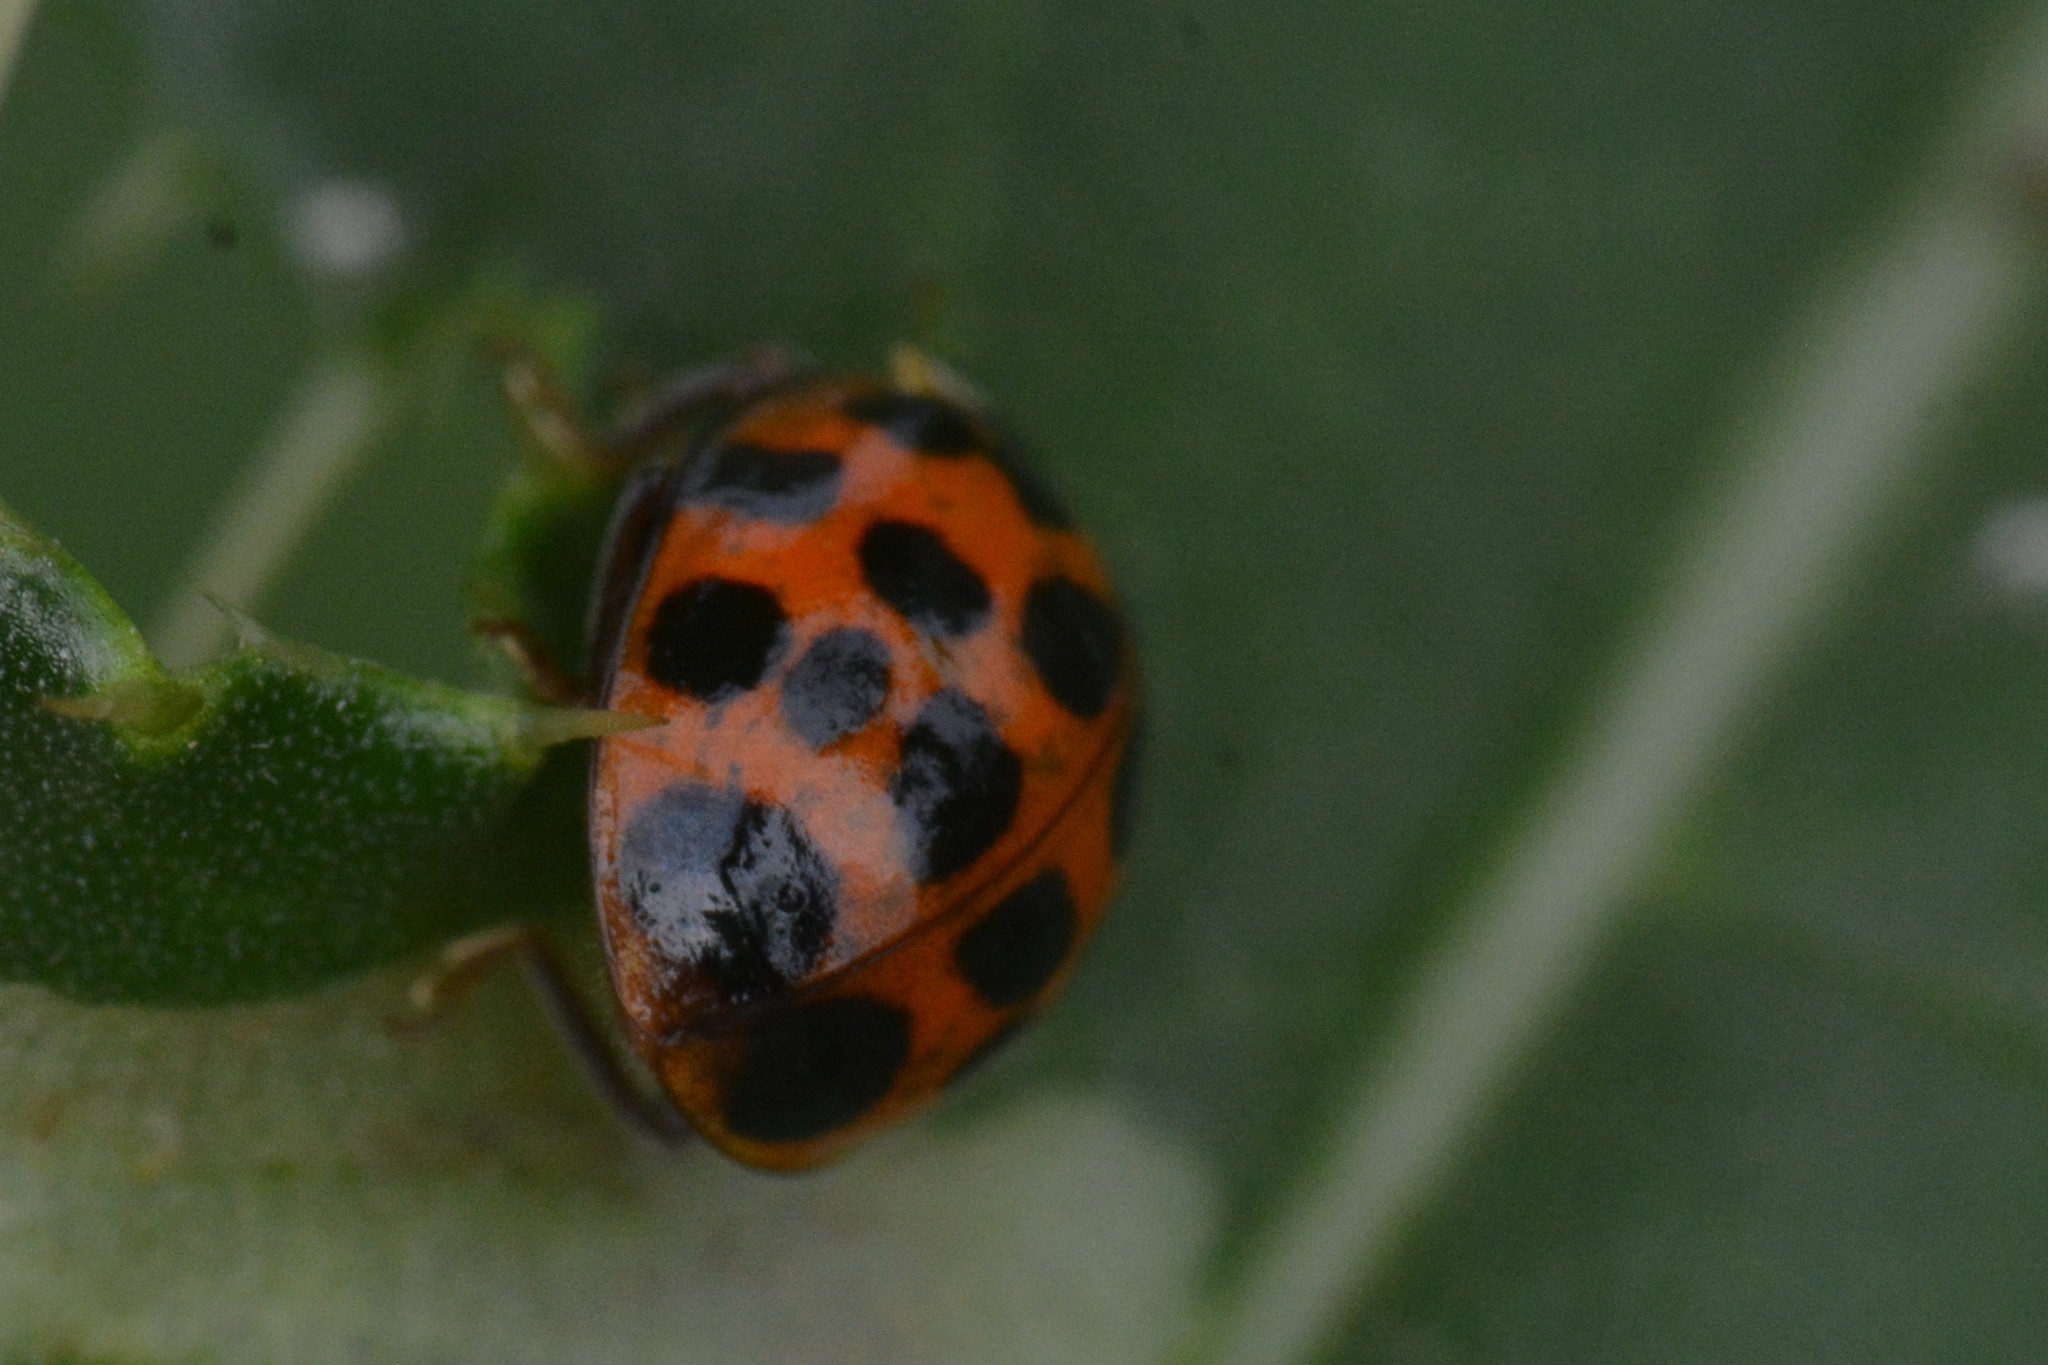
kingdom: Animalia
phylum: Arthropoda
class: Insecta
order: Coleoptera
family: Coccinellidae
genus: Harmonia
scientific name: Harmonia axyridis
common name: Harlequin ladybird
